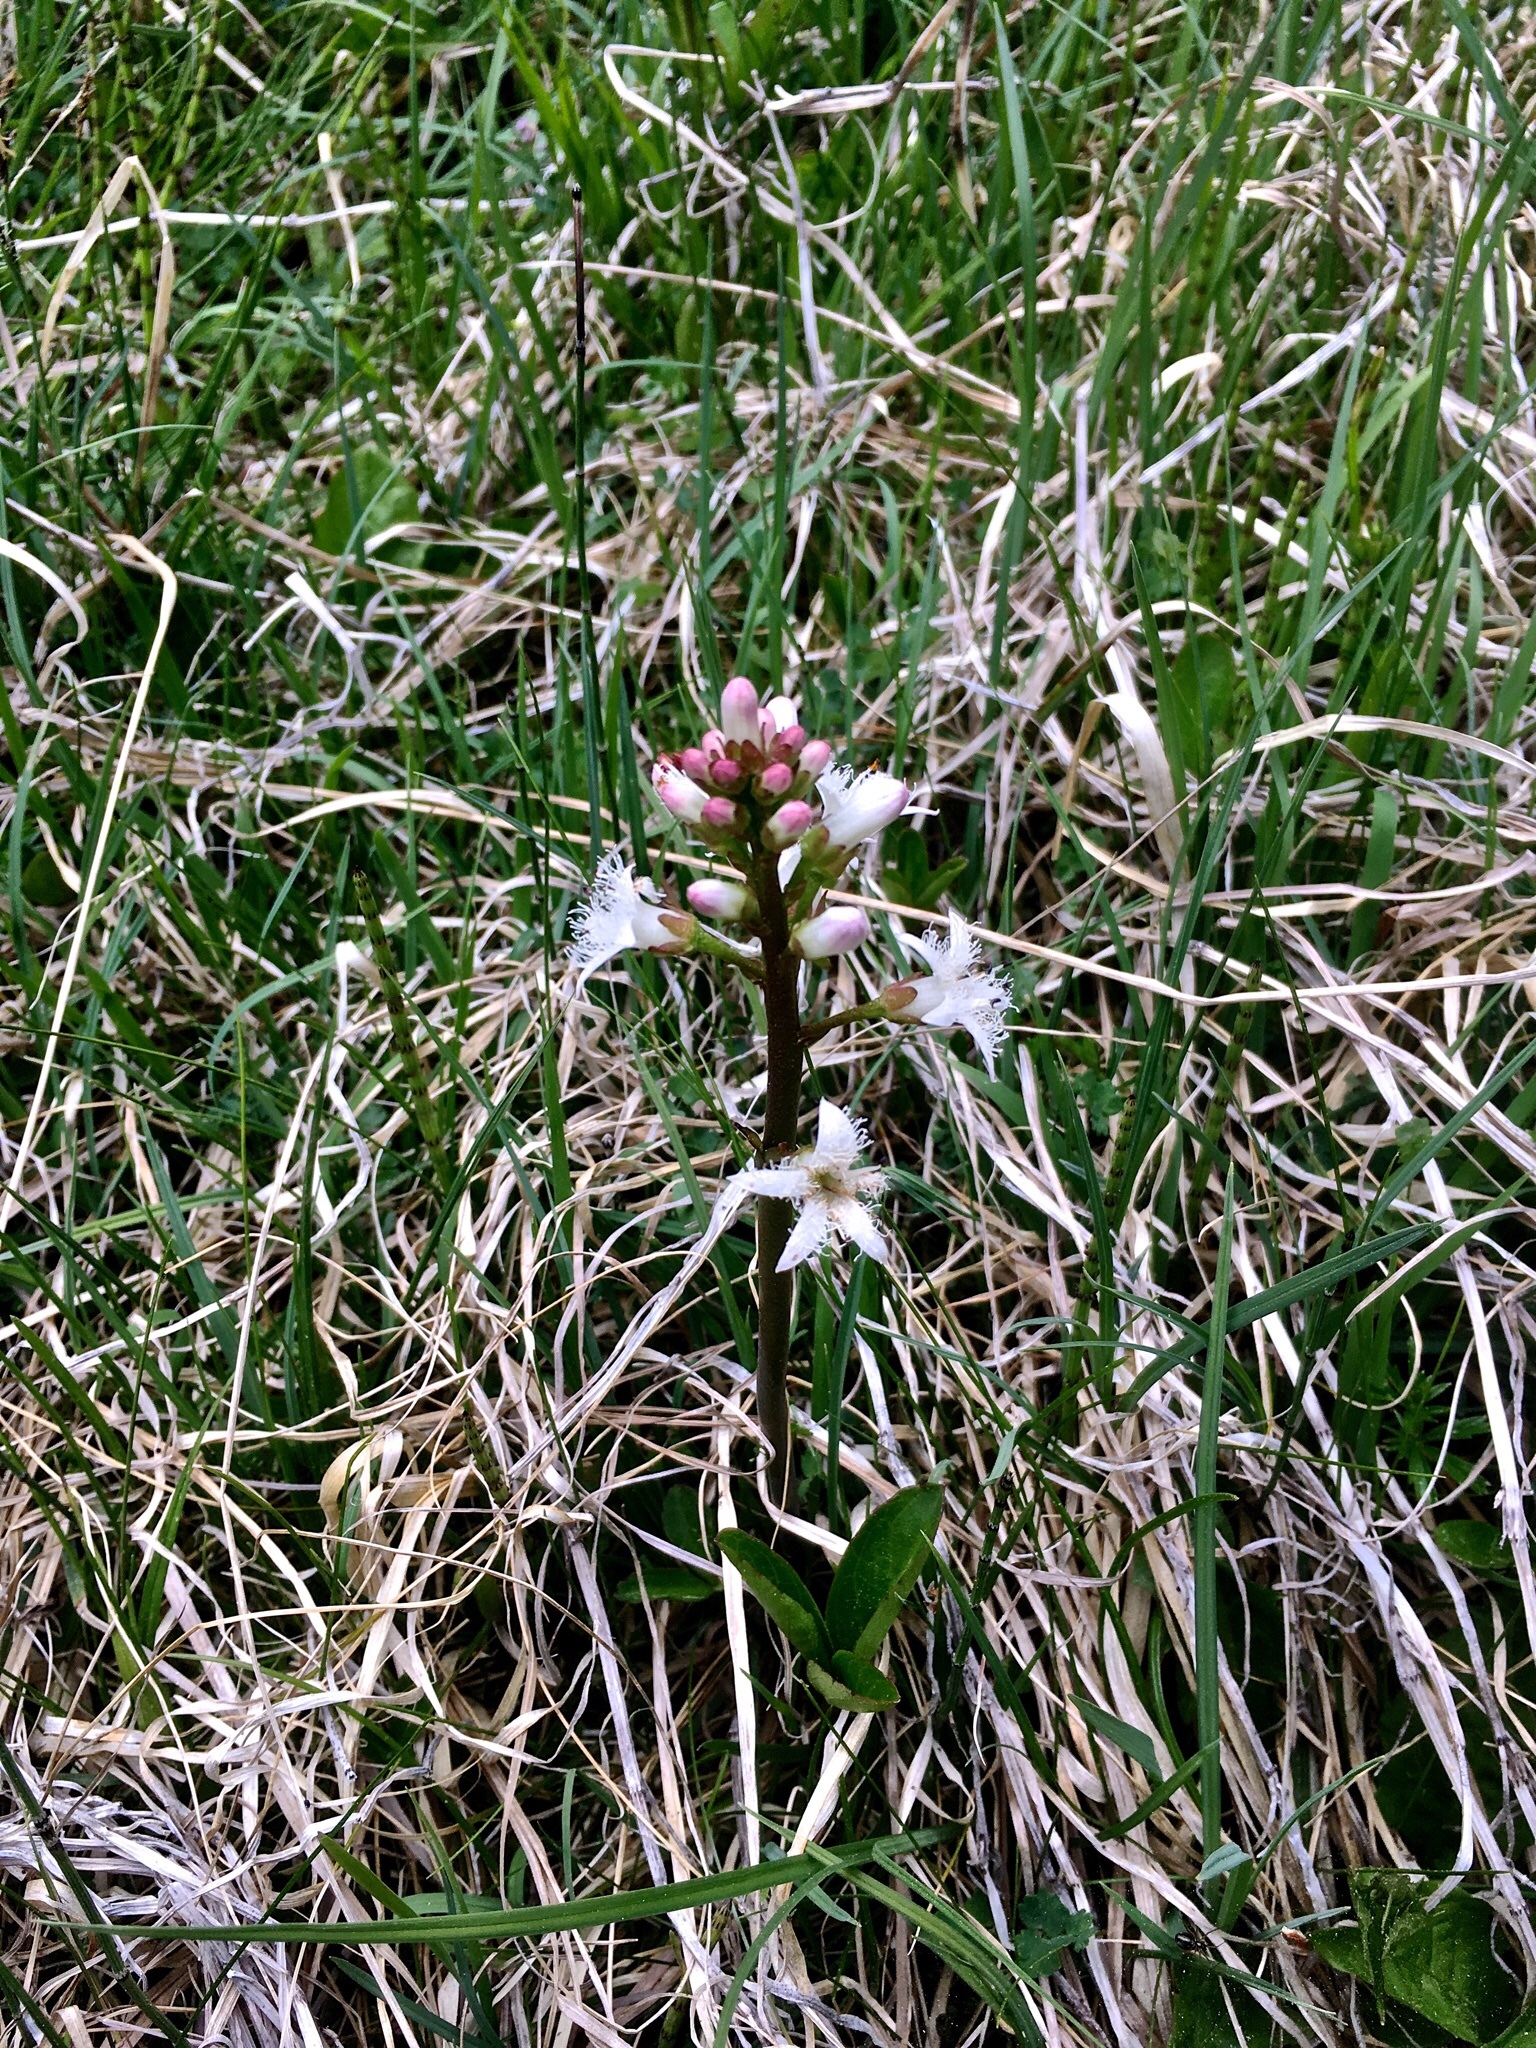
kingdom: Plantae
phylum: Tracheophyta
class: Magnoliopsida
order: Asterales
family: Menyanthaceae
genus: Menyanthes
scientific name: Menyanthes trifoliata
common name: Bogbean
